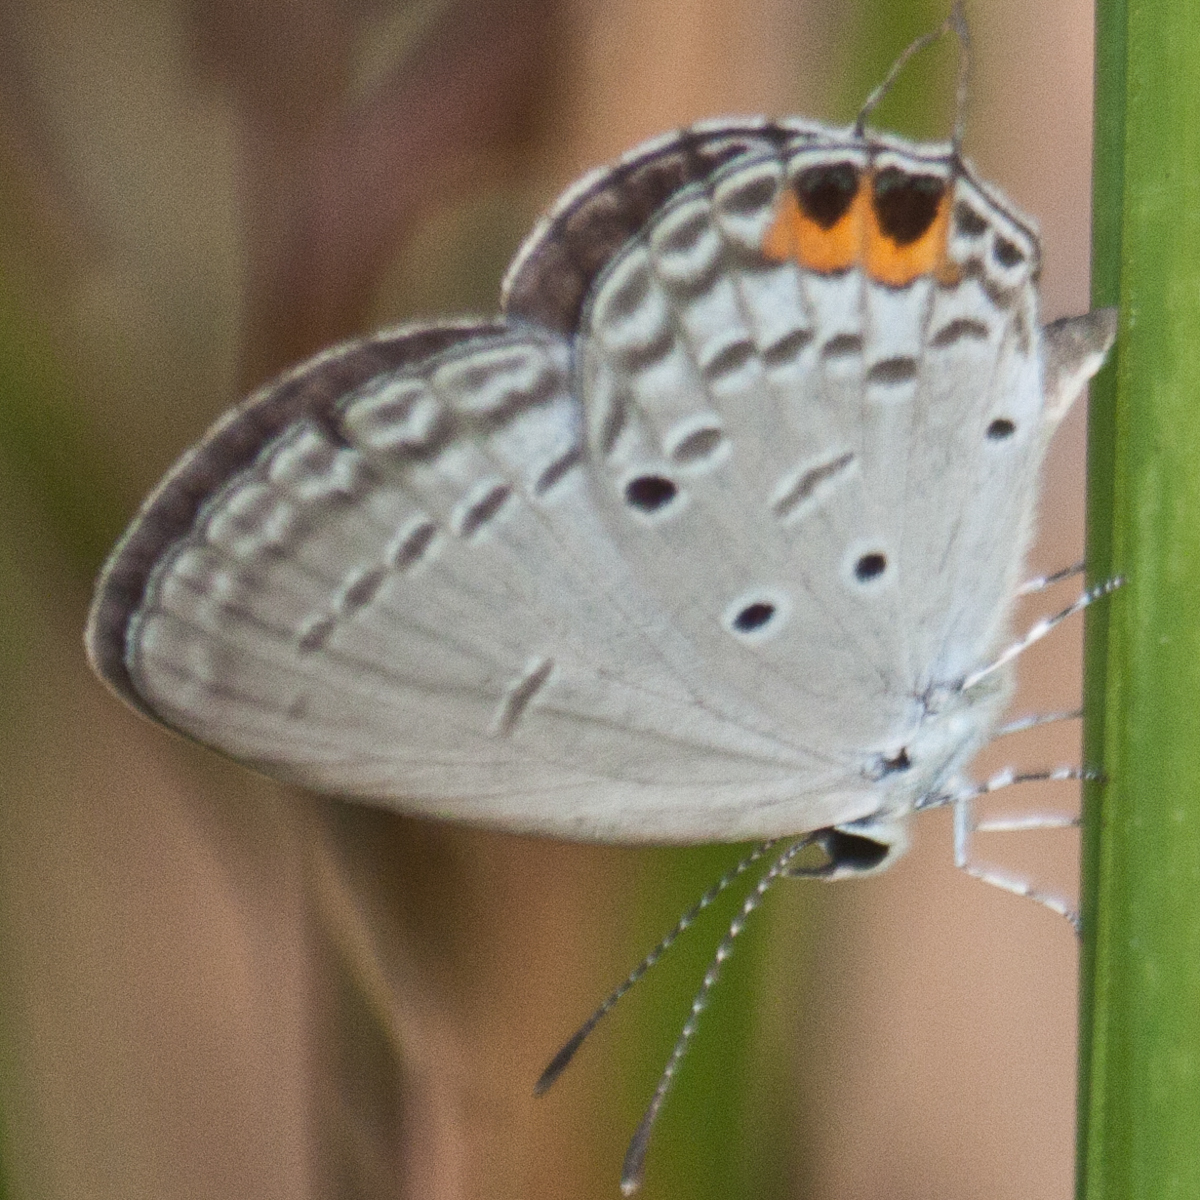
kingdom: Animalia
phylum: Arthropoda
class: Insecta
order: Lepidoptera
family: Lycaenidae
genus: Everes
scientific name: Everes lacturnus
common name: Orange-tipped pea-blue
